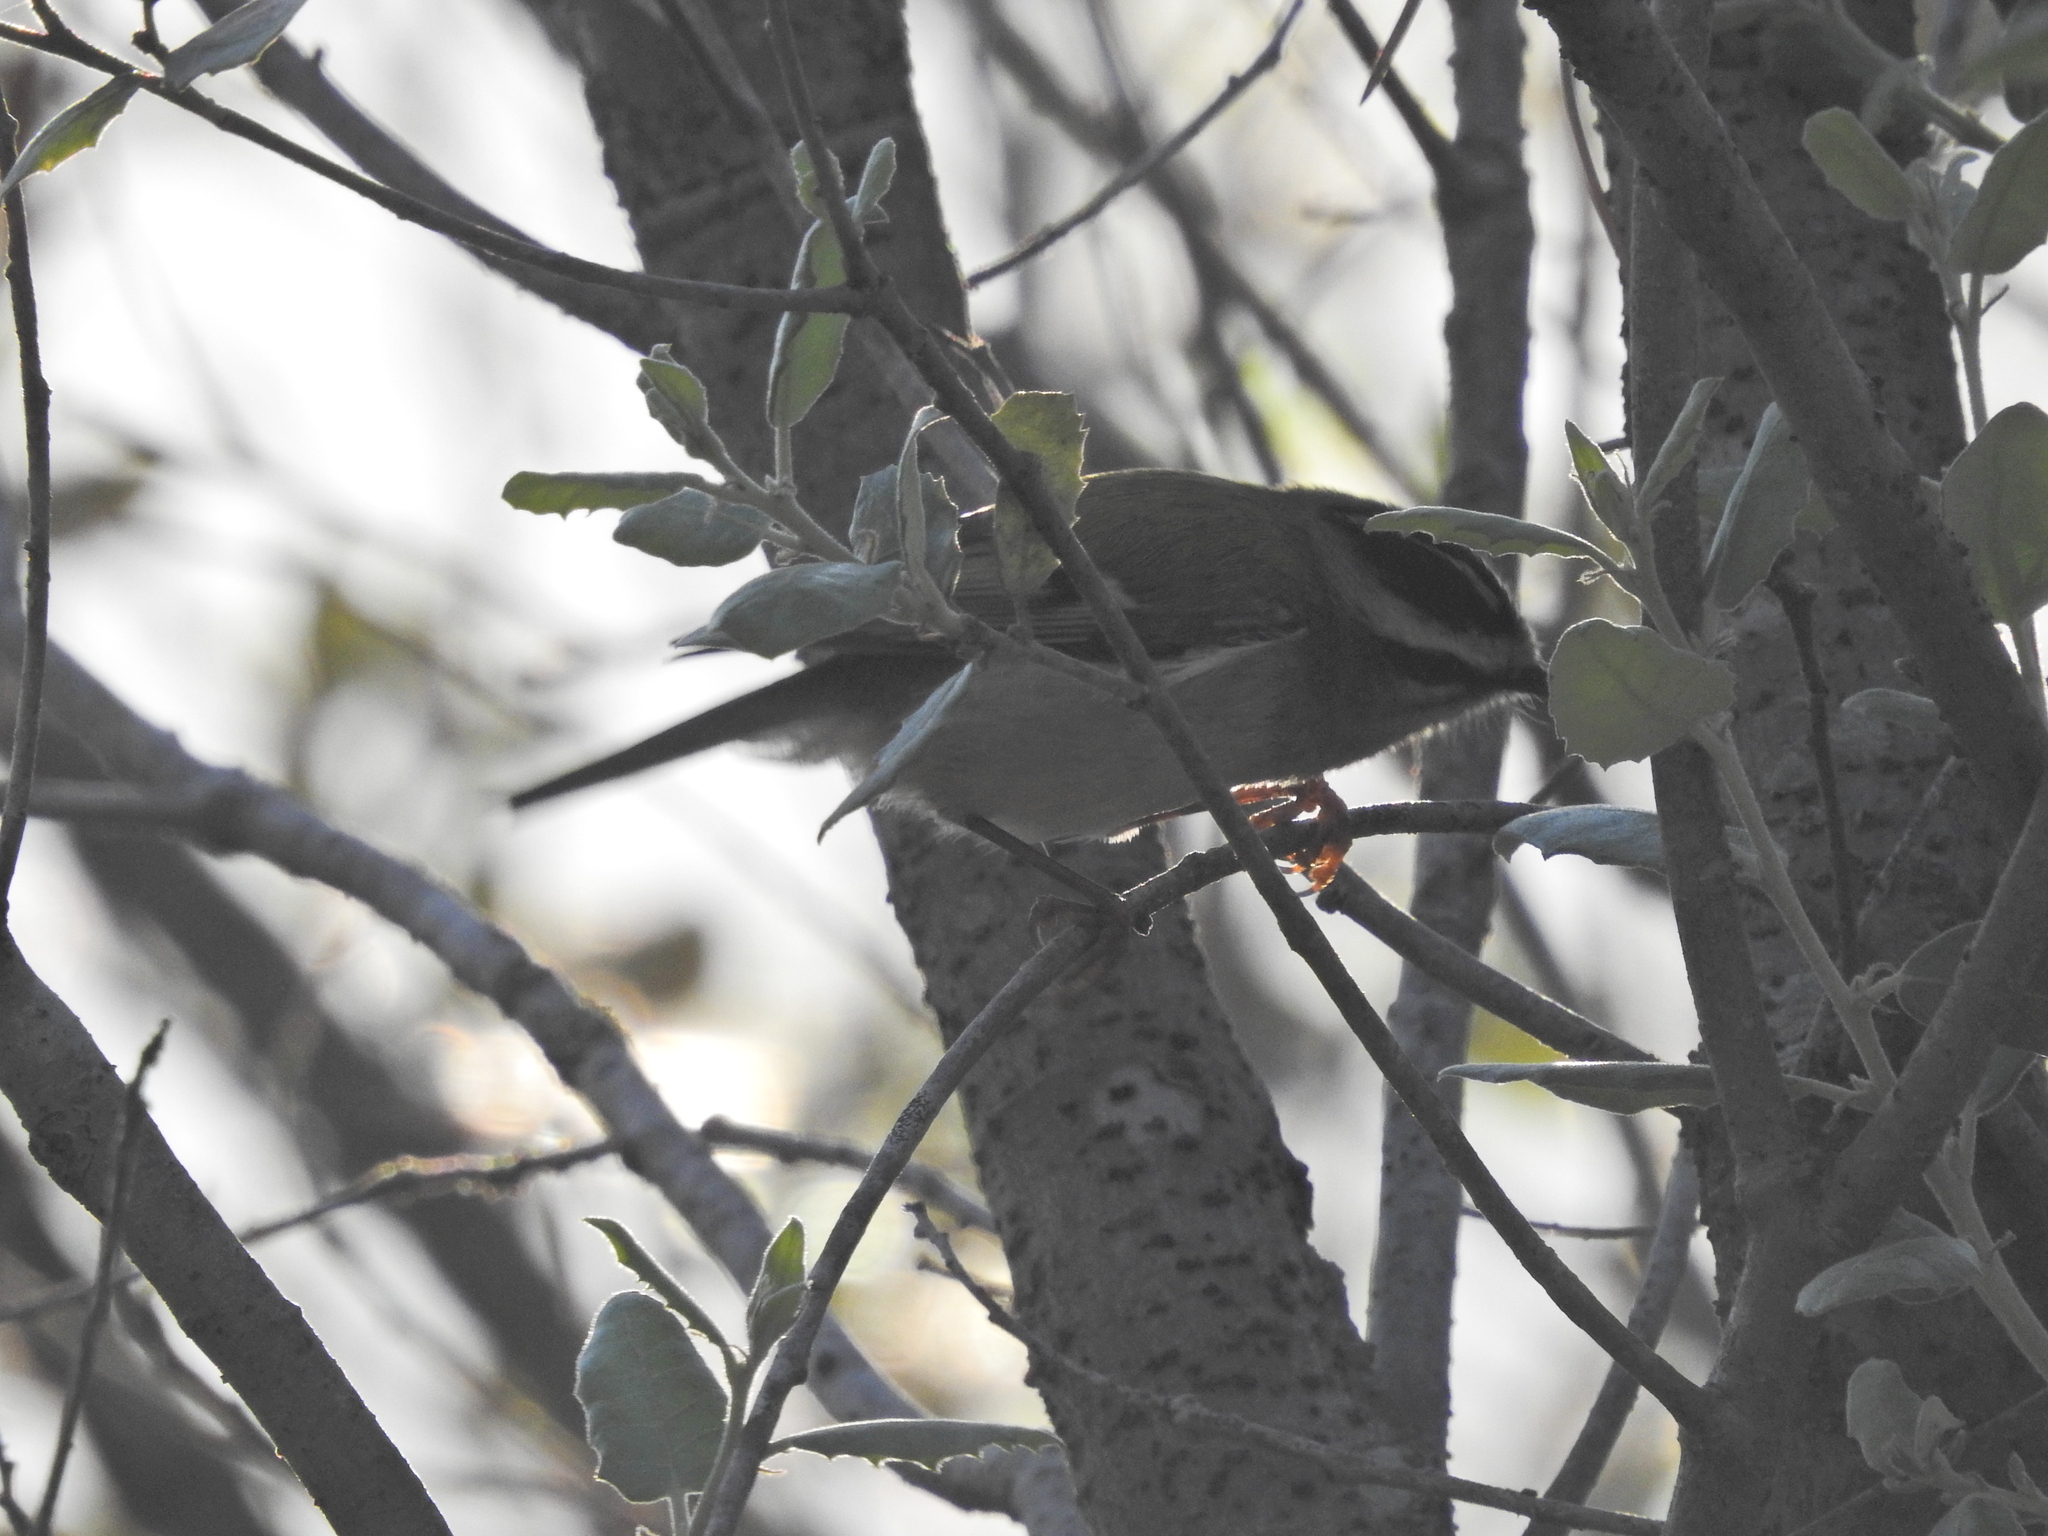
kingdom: Animalia
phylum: Chordata
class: Aves
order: Passeriformes
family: Regulidae
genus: Regulus
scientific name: Regulus ignicapilla
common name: Firecrest
